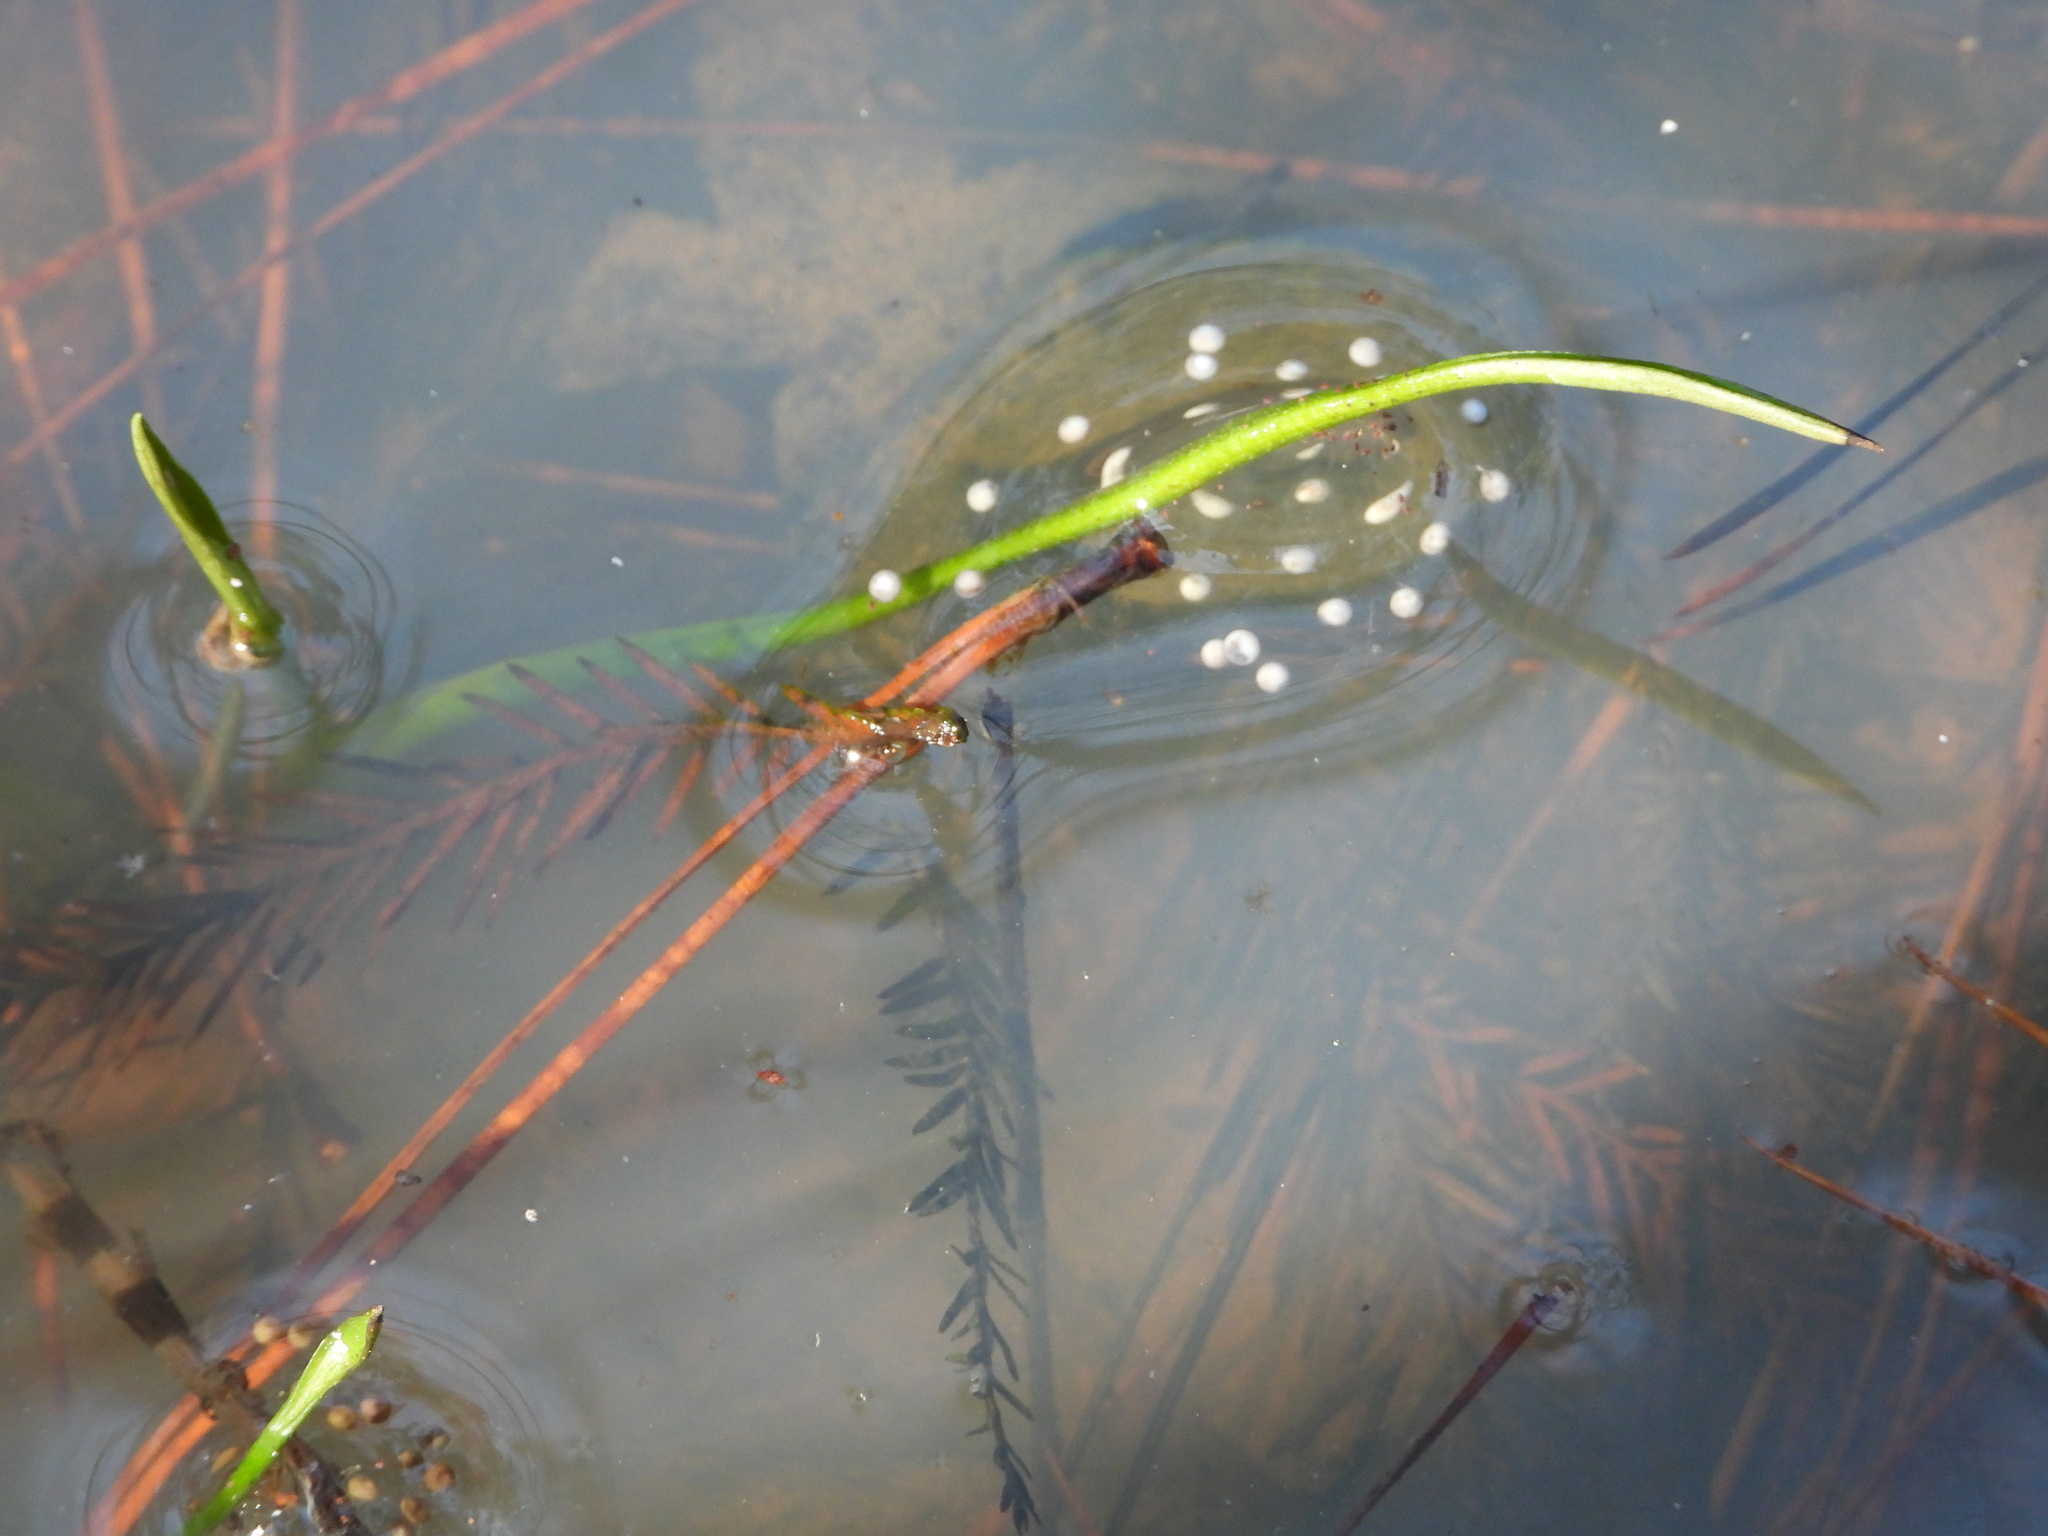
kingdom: Animalia
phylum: Chordata
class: Amphibia
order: Anura
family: Hylidae
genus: Pseudacris
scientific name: Pseudacris feriarum
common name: Upland chorus frog
